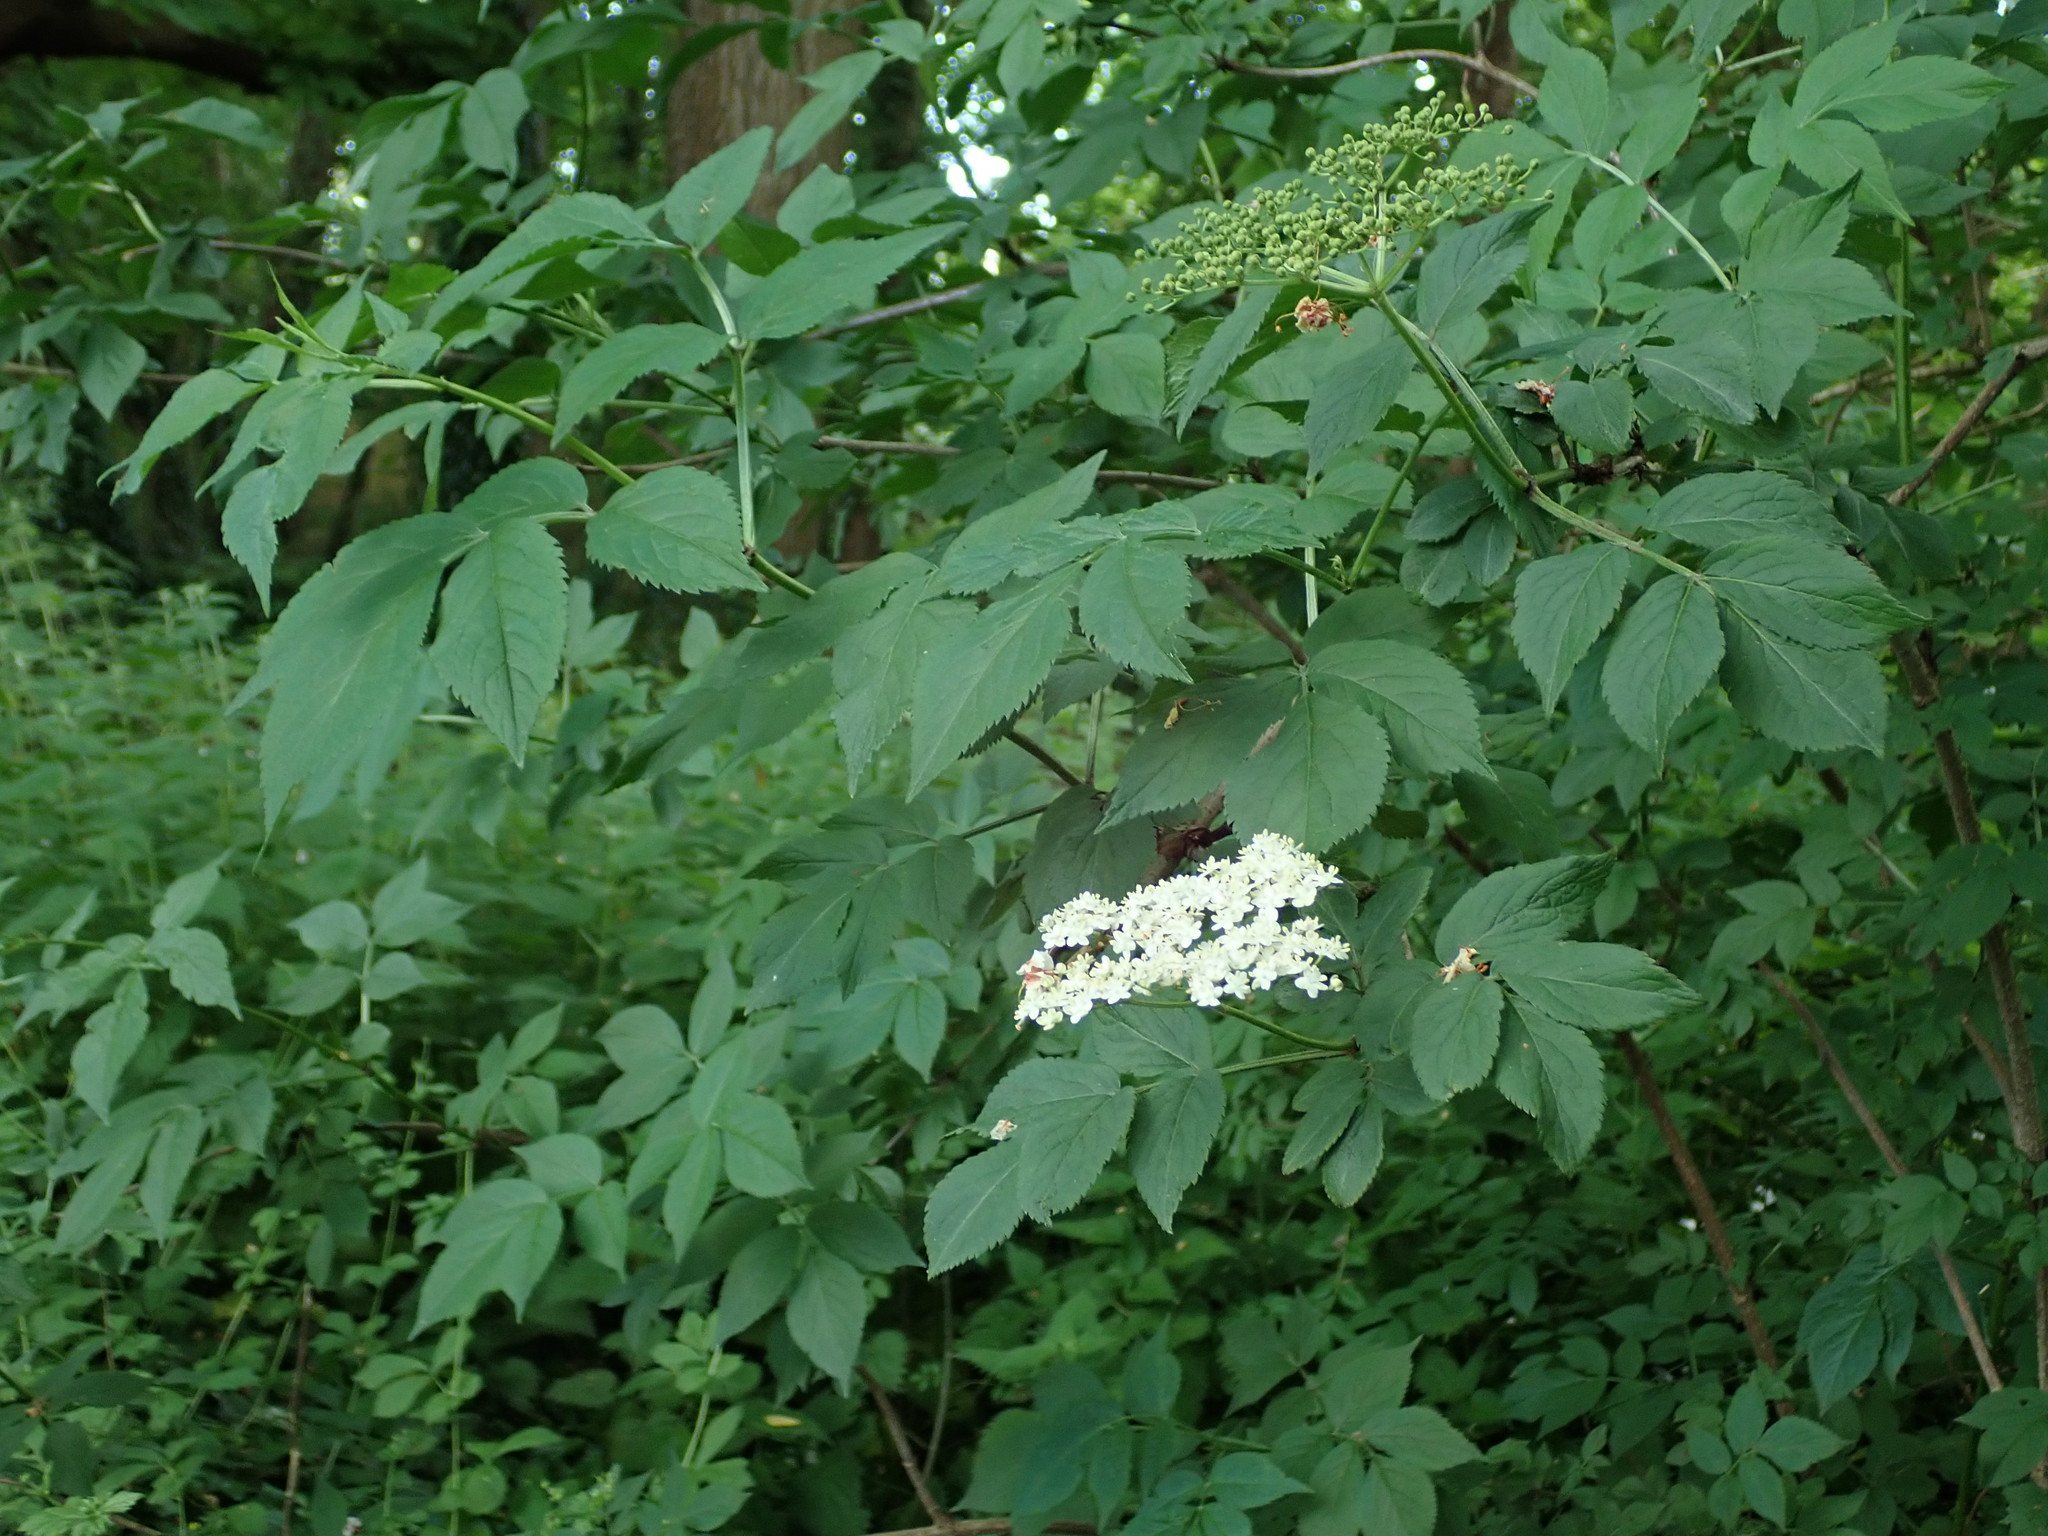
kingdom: Plantae
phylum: Tracheophyta
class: Magnoliopsida
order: Dipsacales
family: Viburnaceae
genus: Sambucus
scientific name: Sambucus nigra
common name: Elder
